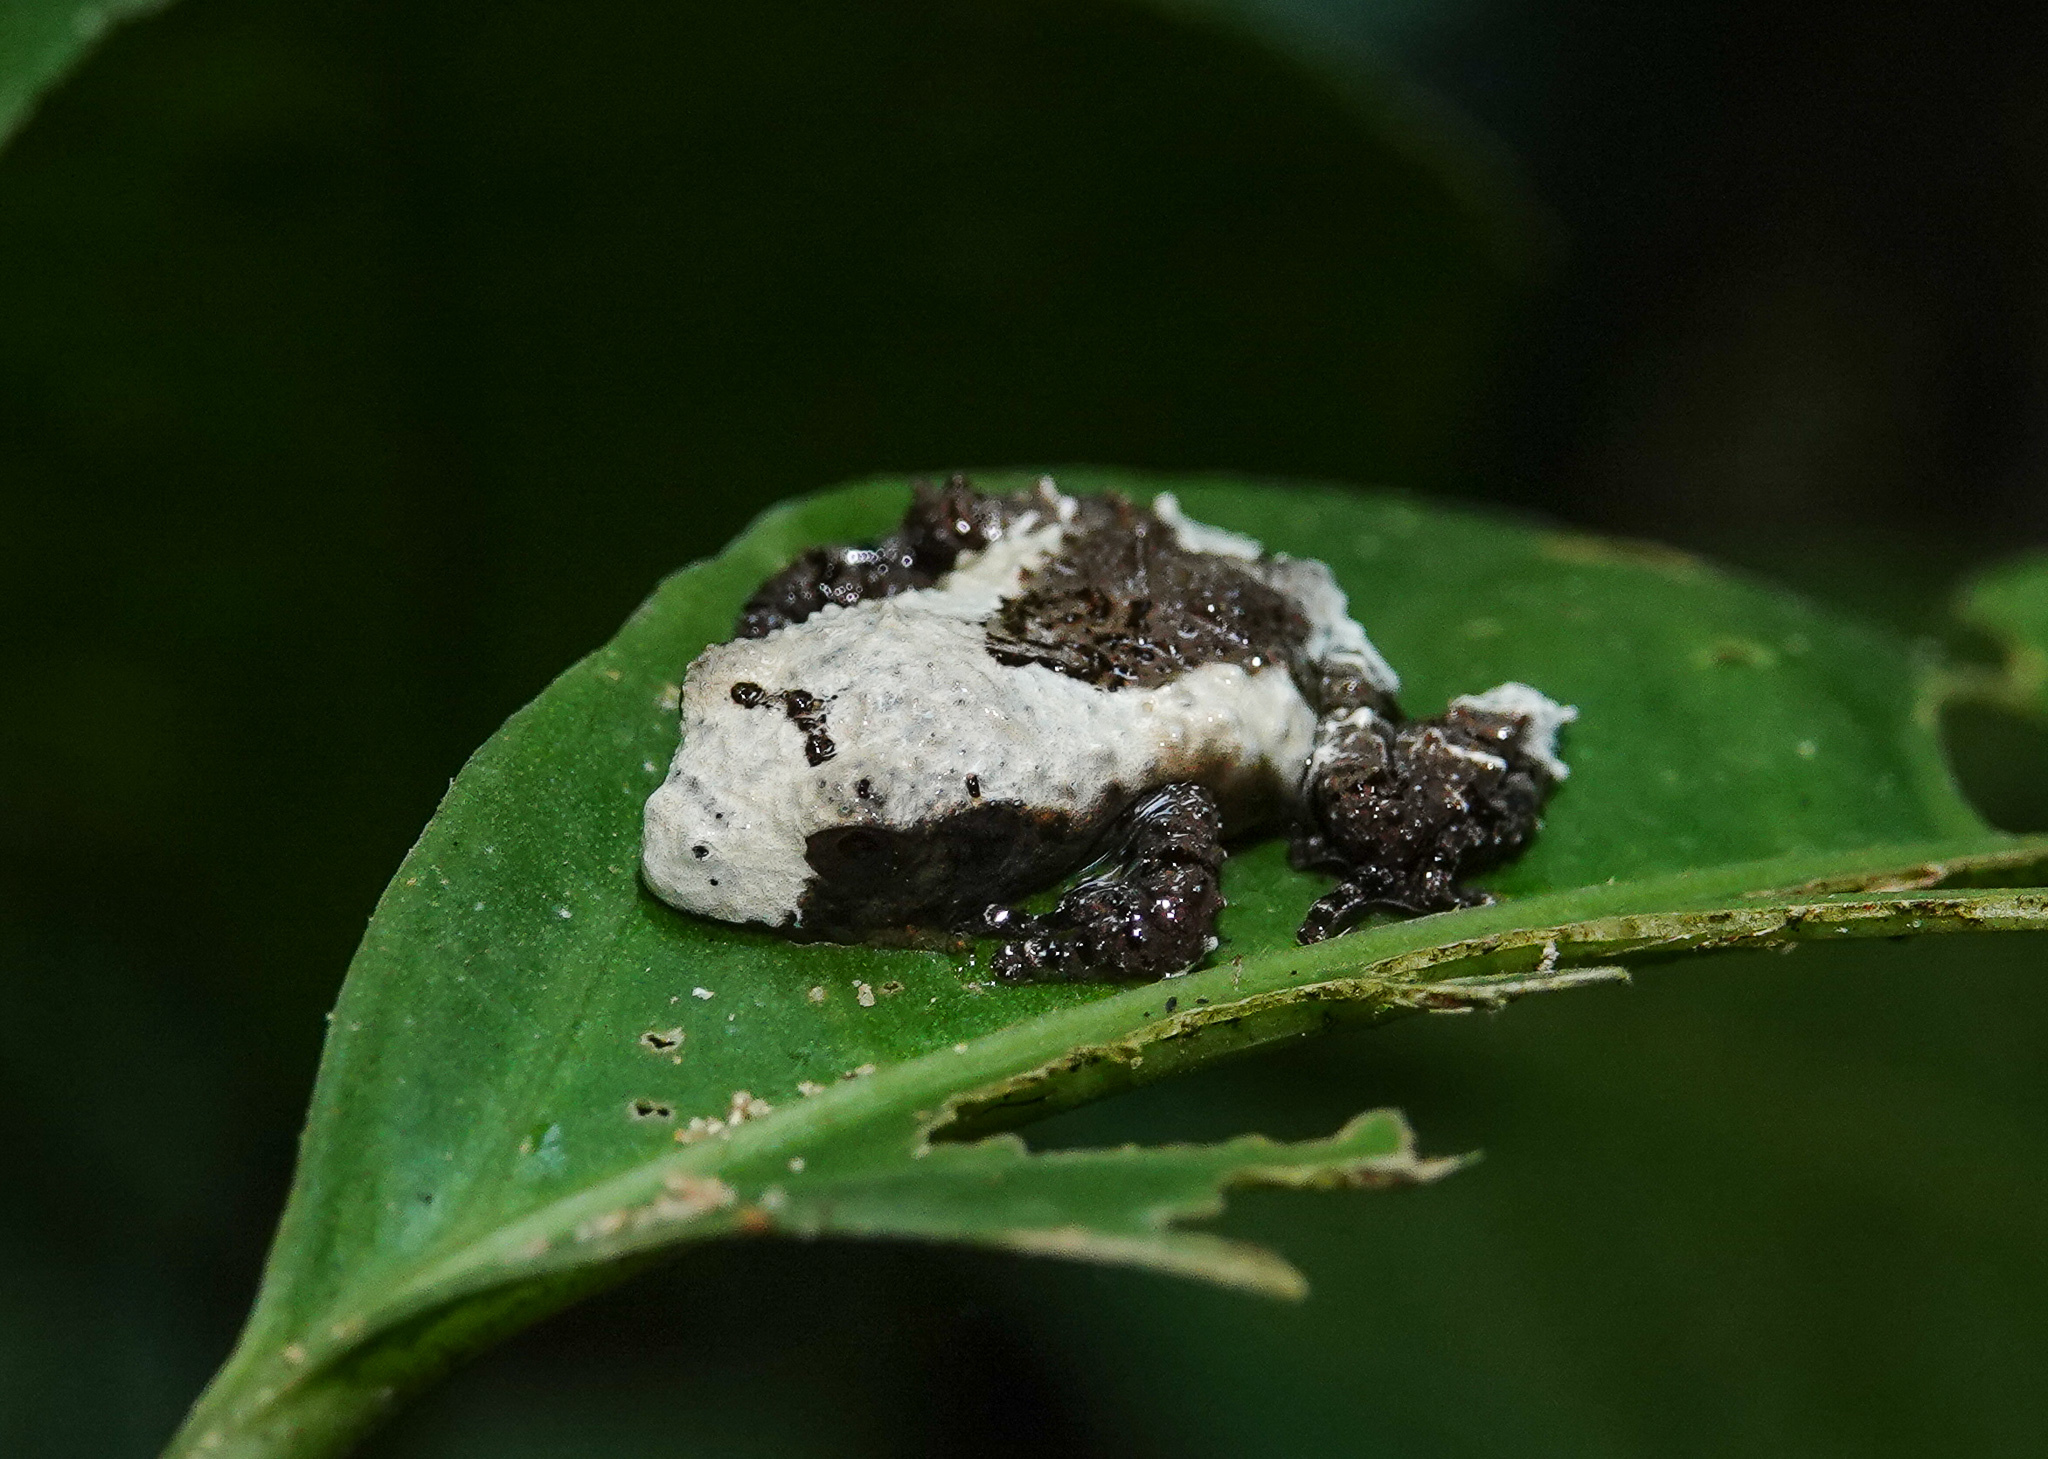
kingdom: Animalia
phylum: Chordata
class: Amphibia
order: Anura
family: Rhacophoridae
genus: Theloderma
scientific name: Theloderma baibungense
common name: Baibung small treefrog
